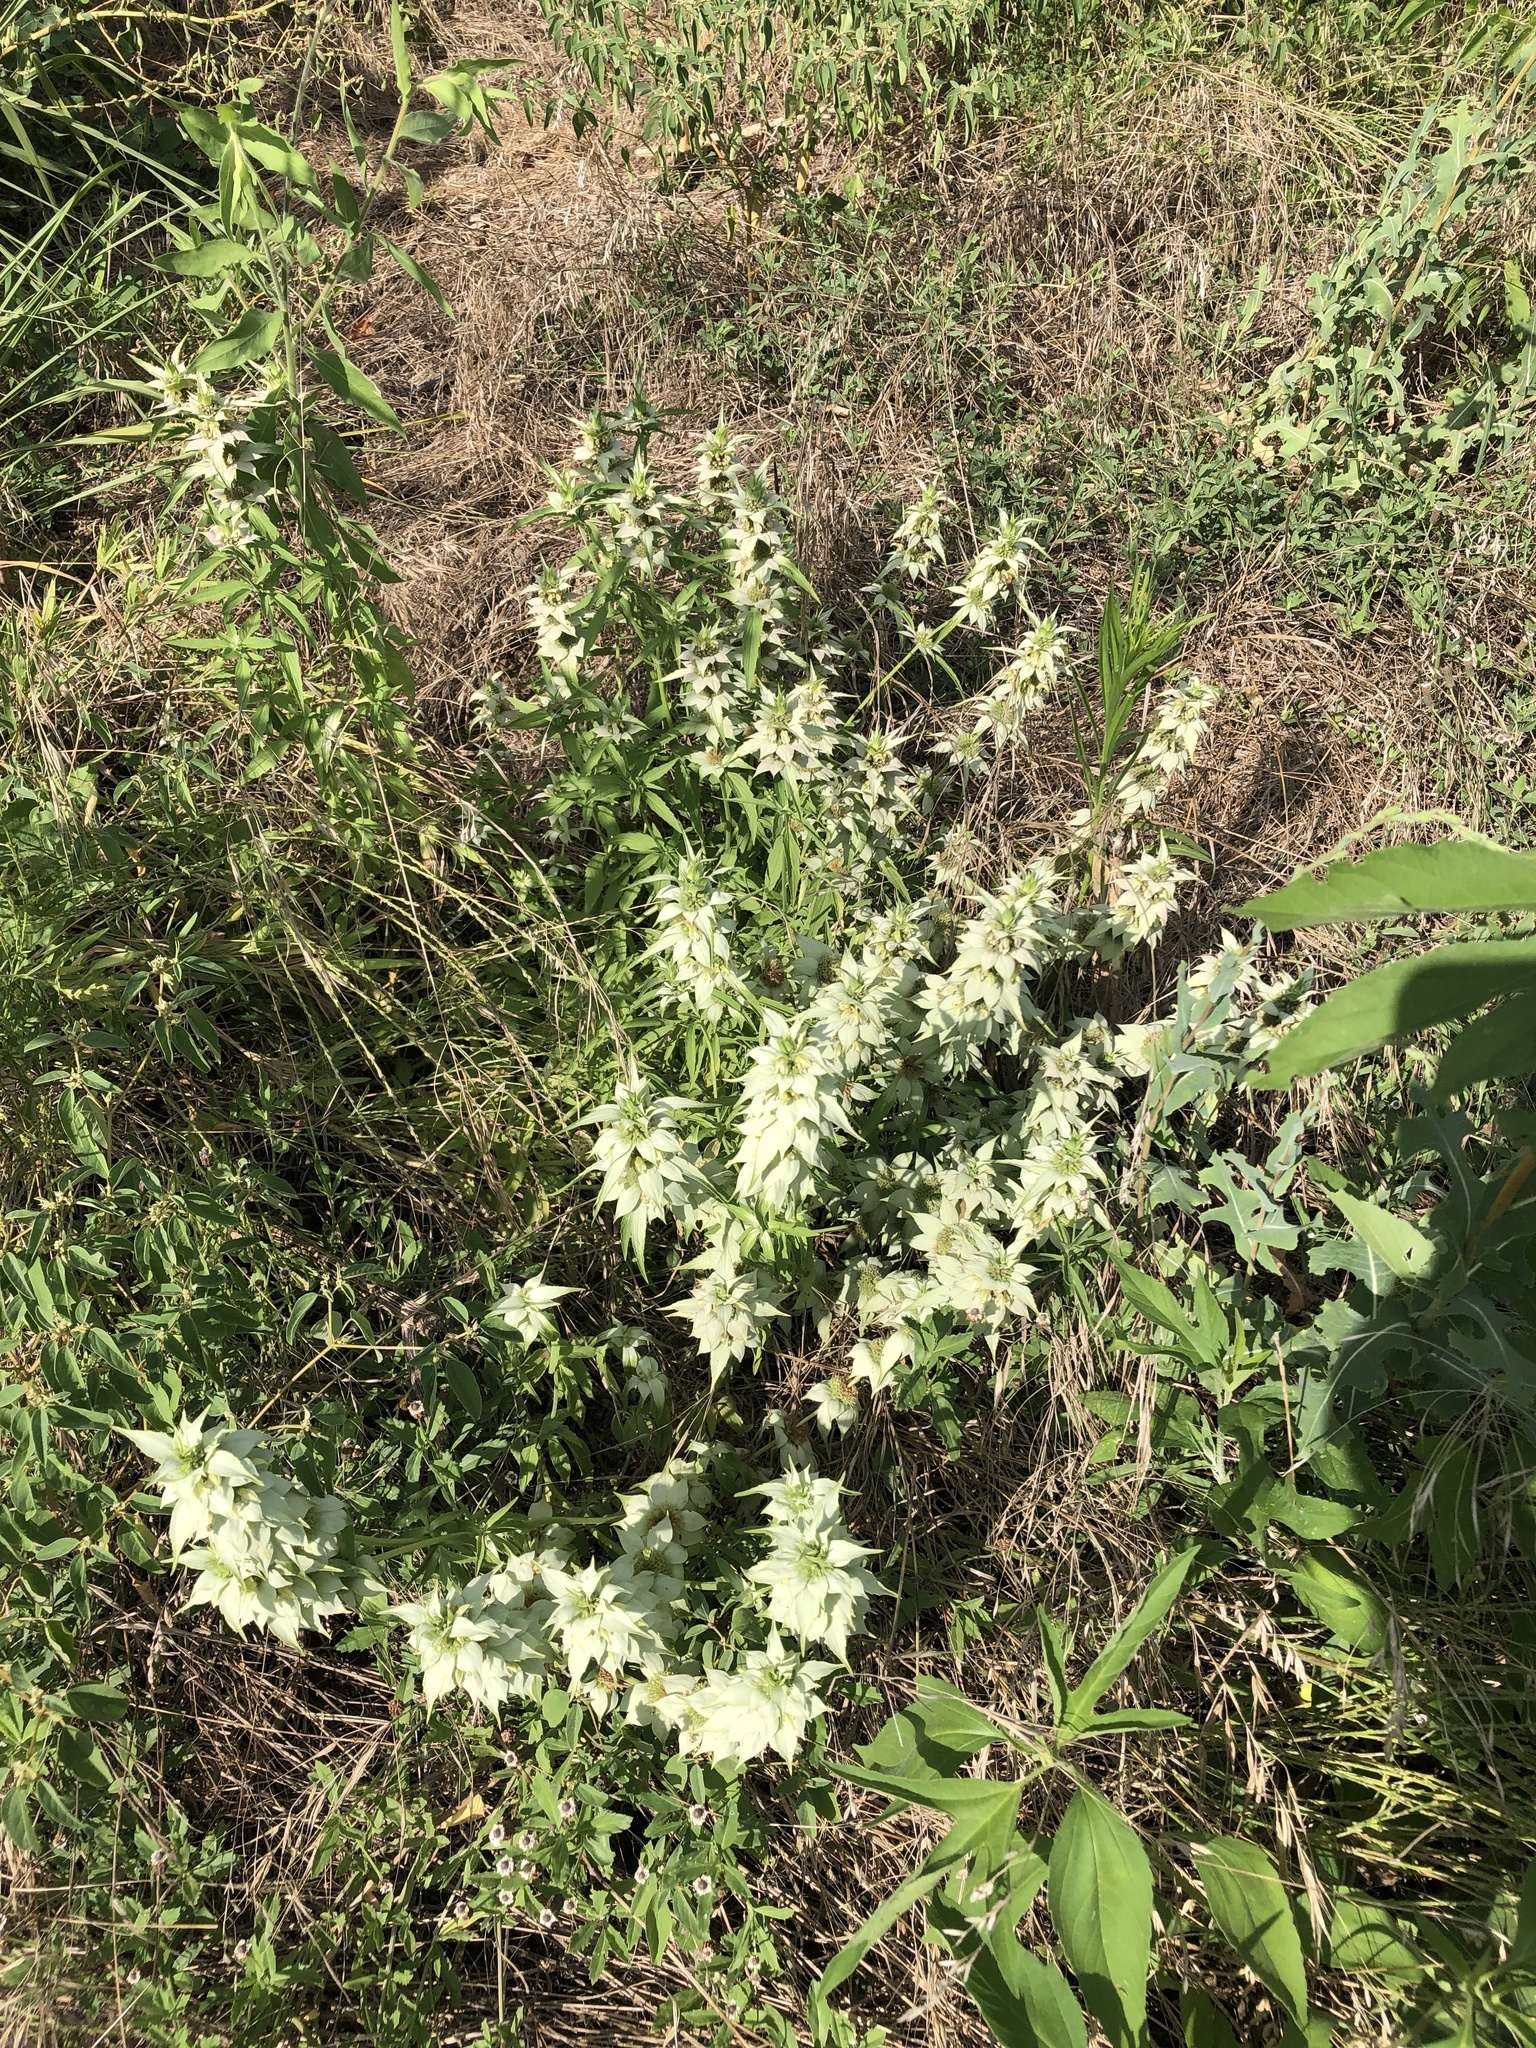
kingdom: Plantae
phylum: Tracheophyta
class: Magnoliopsida
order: Lamiales
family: Lamiaceae
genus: Monarda
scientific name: Monarda punctata
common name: Dotted monarda
